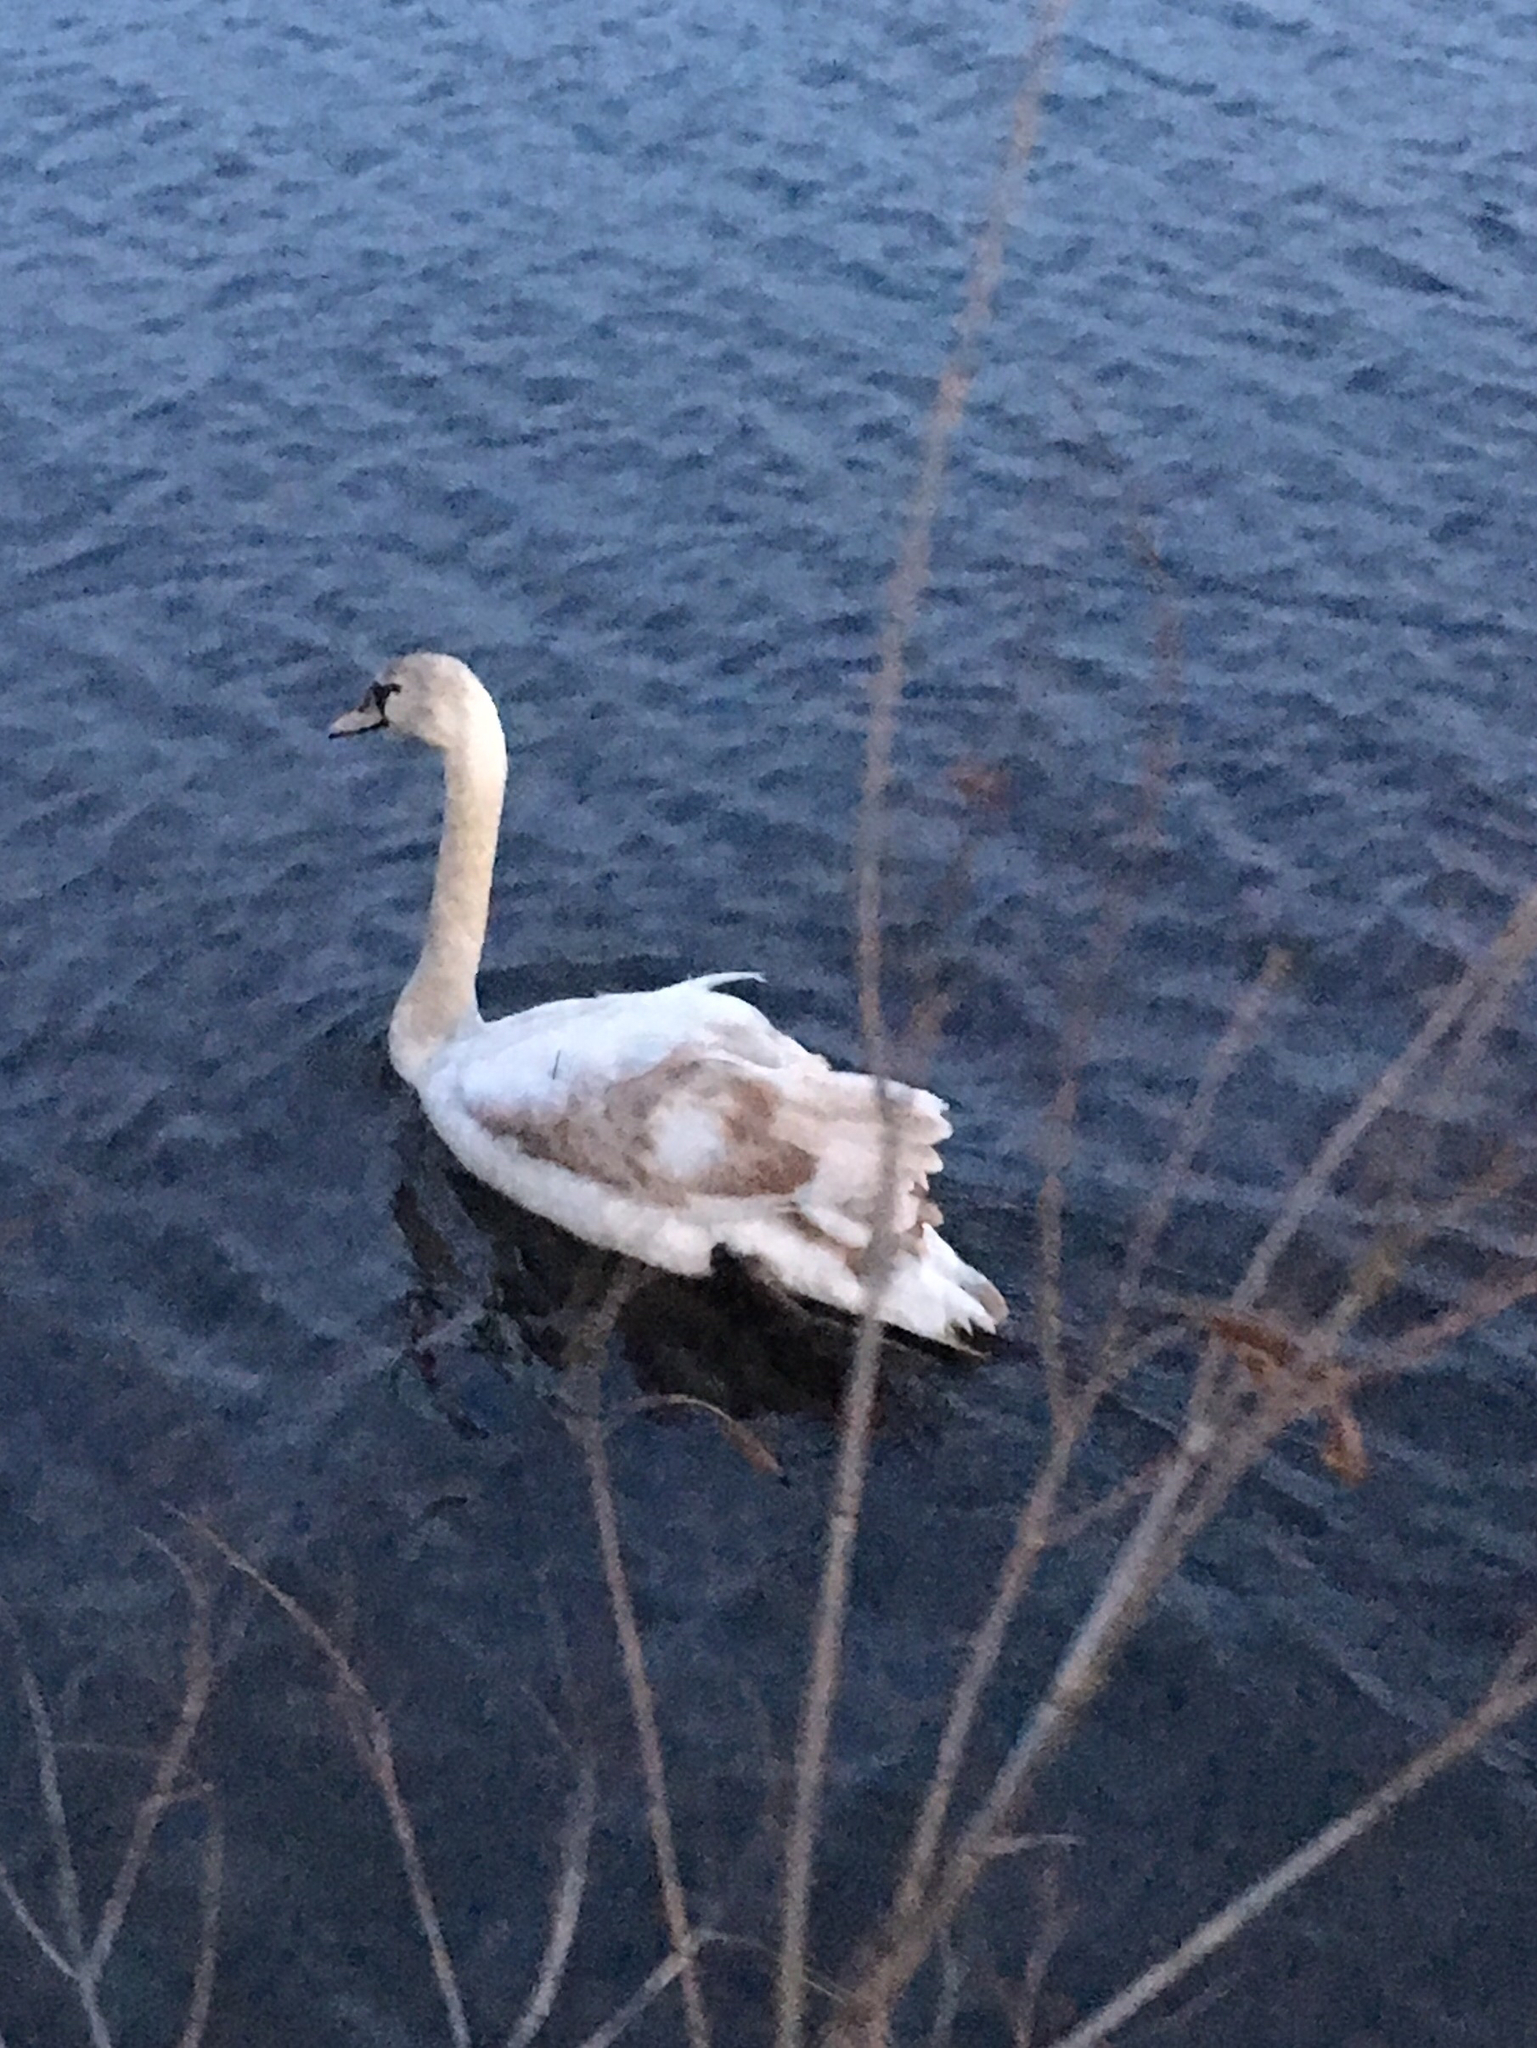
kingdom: Animalia
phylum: Chordata
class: Aves
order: Anseriformes
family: Anatidae
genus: Cygnus
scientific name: Cygnus olor
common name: Mute swan
